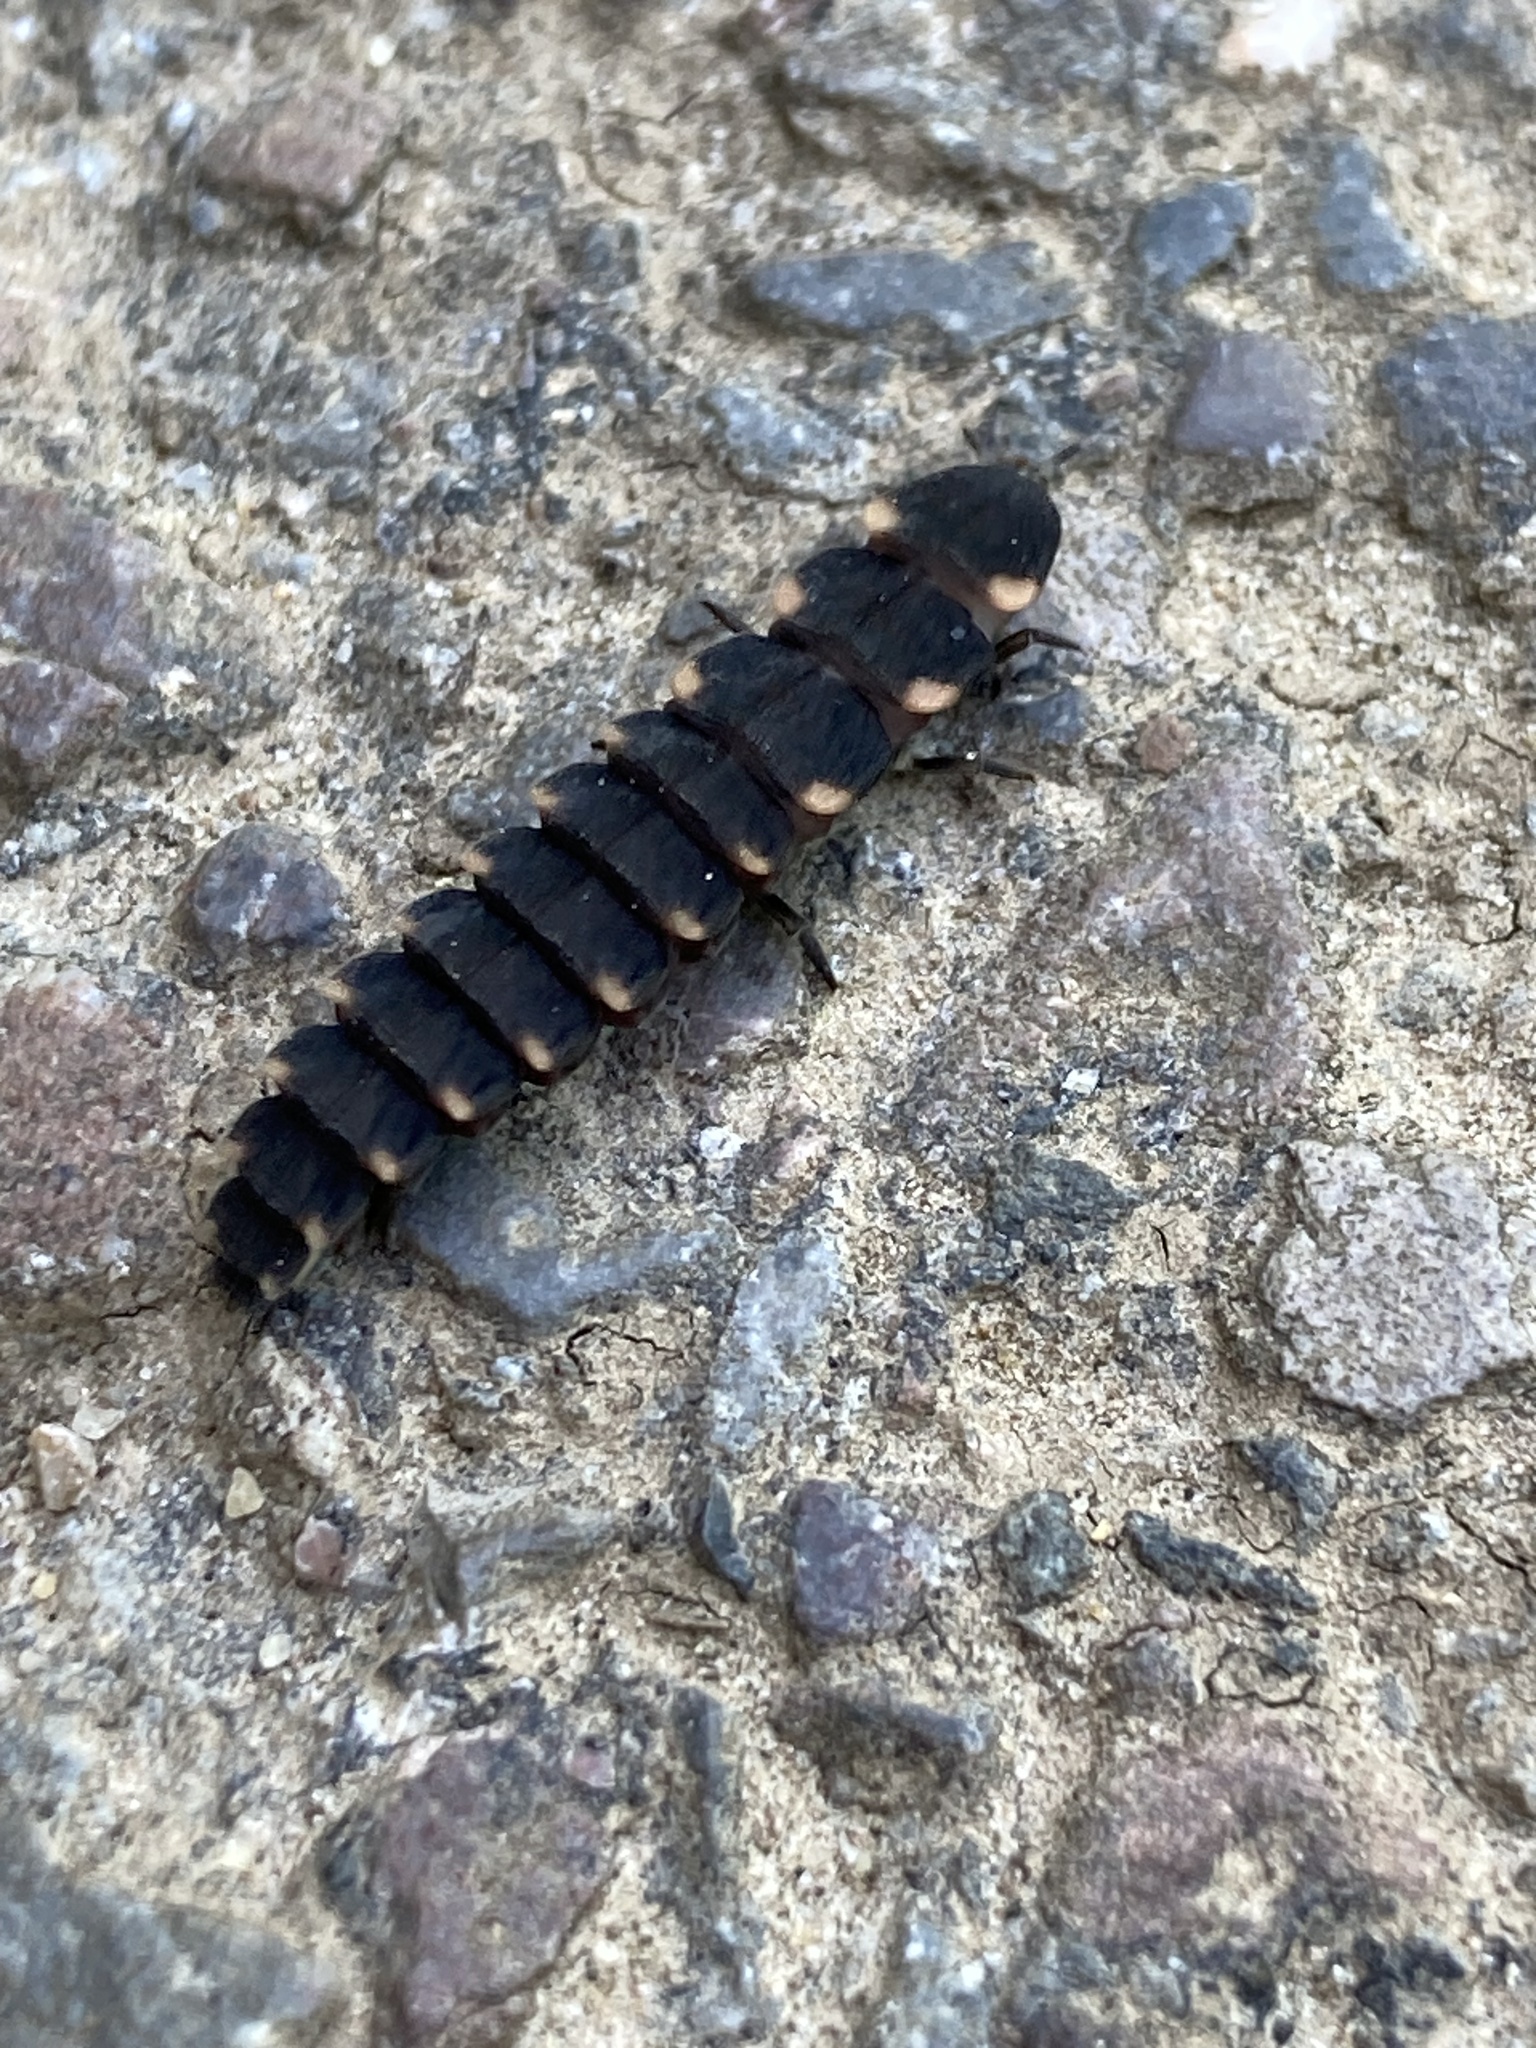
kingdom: Animalia
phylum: Arthropoda
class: Insecta
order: Coleoptera
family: Lampyridae
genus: Lampyris
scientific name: Lampyris noctiluca
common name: Glow-worm
